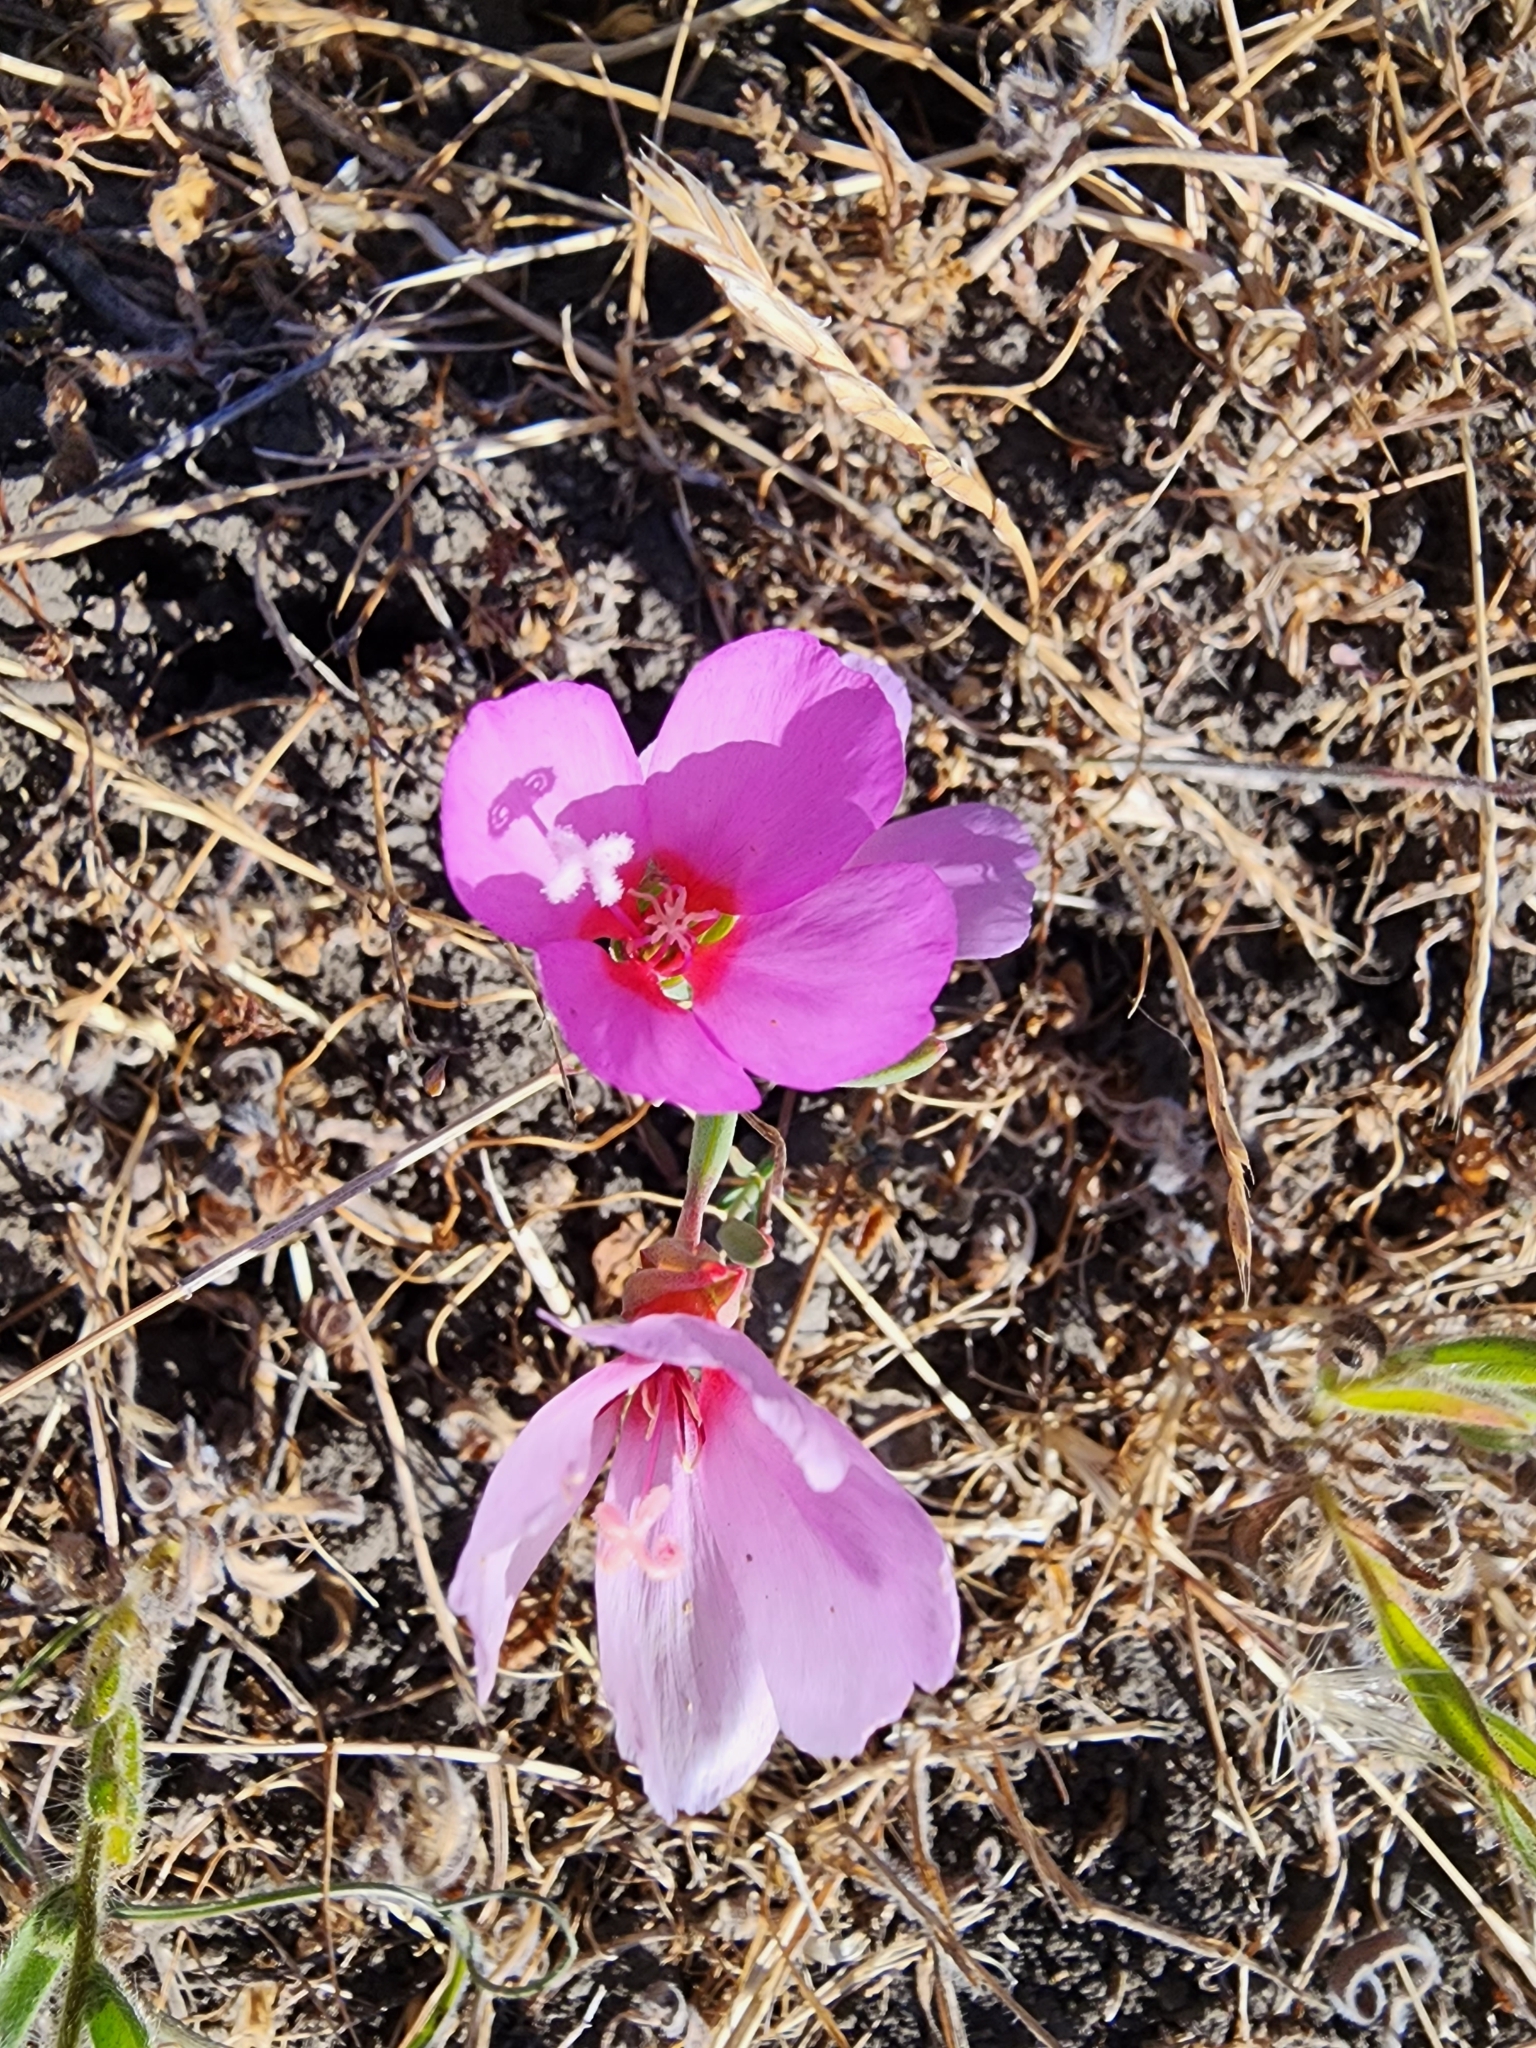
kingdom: Plantae
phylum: Tracheophyta
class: Magnoliopsida
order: Myrtales
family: Onagraceae
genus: Clarkia
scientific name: Clarkia rubicunda
